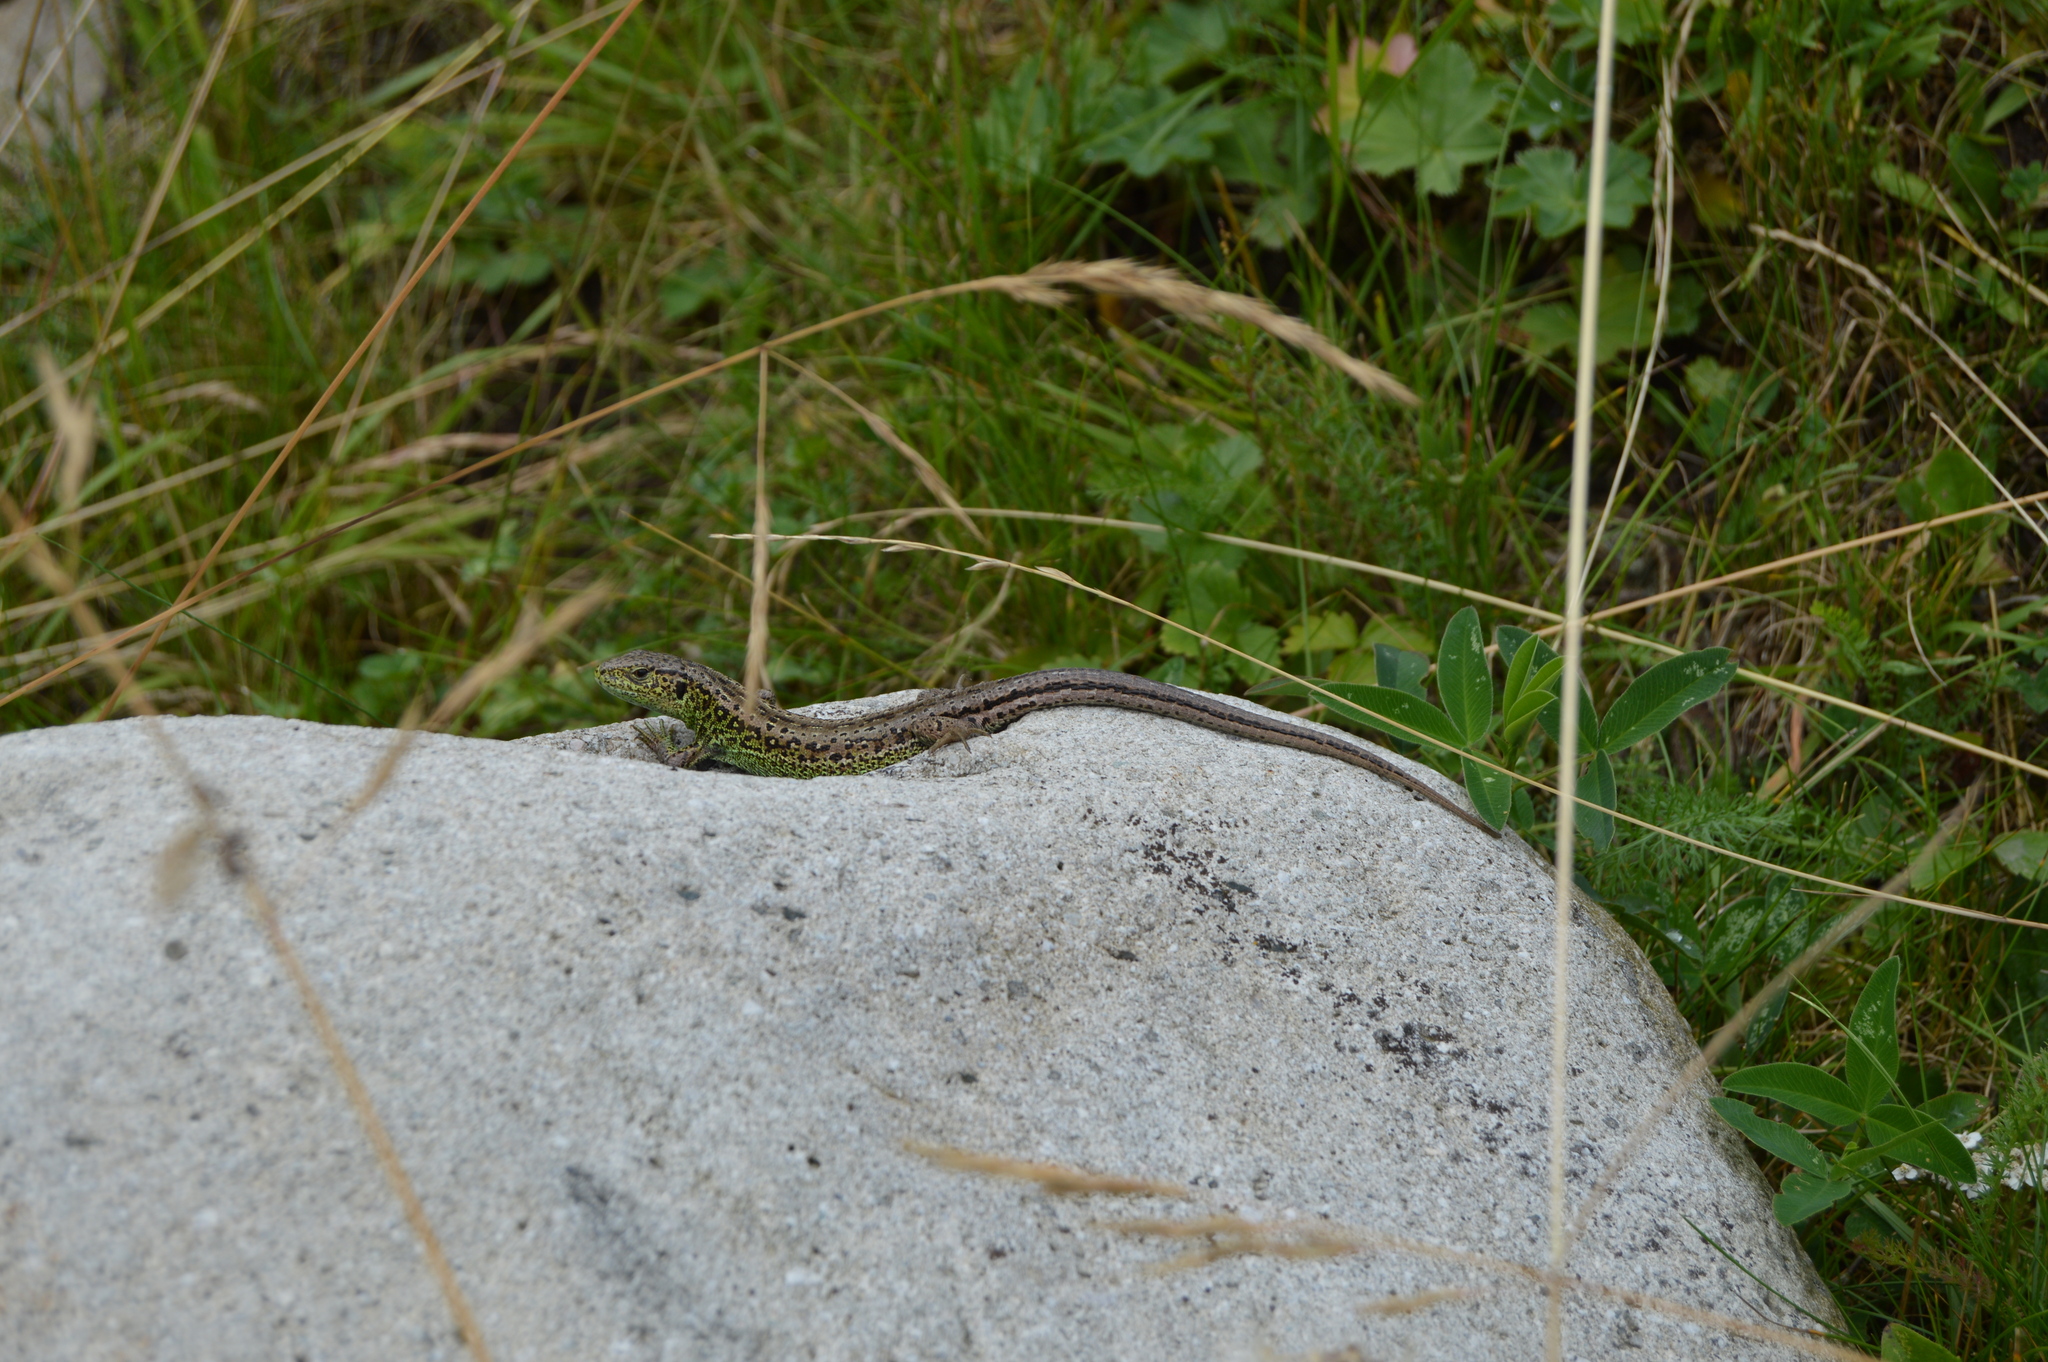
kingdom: Animalia
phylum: Chordata
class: Squamata
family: Lacertidae
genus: Lacerta
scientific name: Lacerta agilis
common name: Sand lizard
